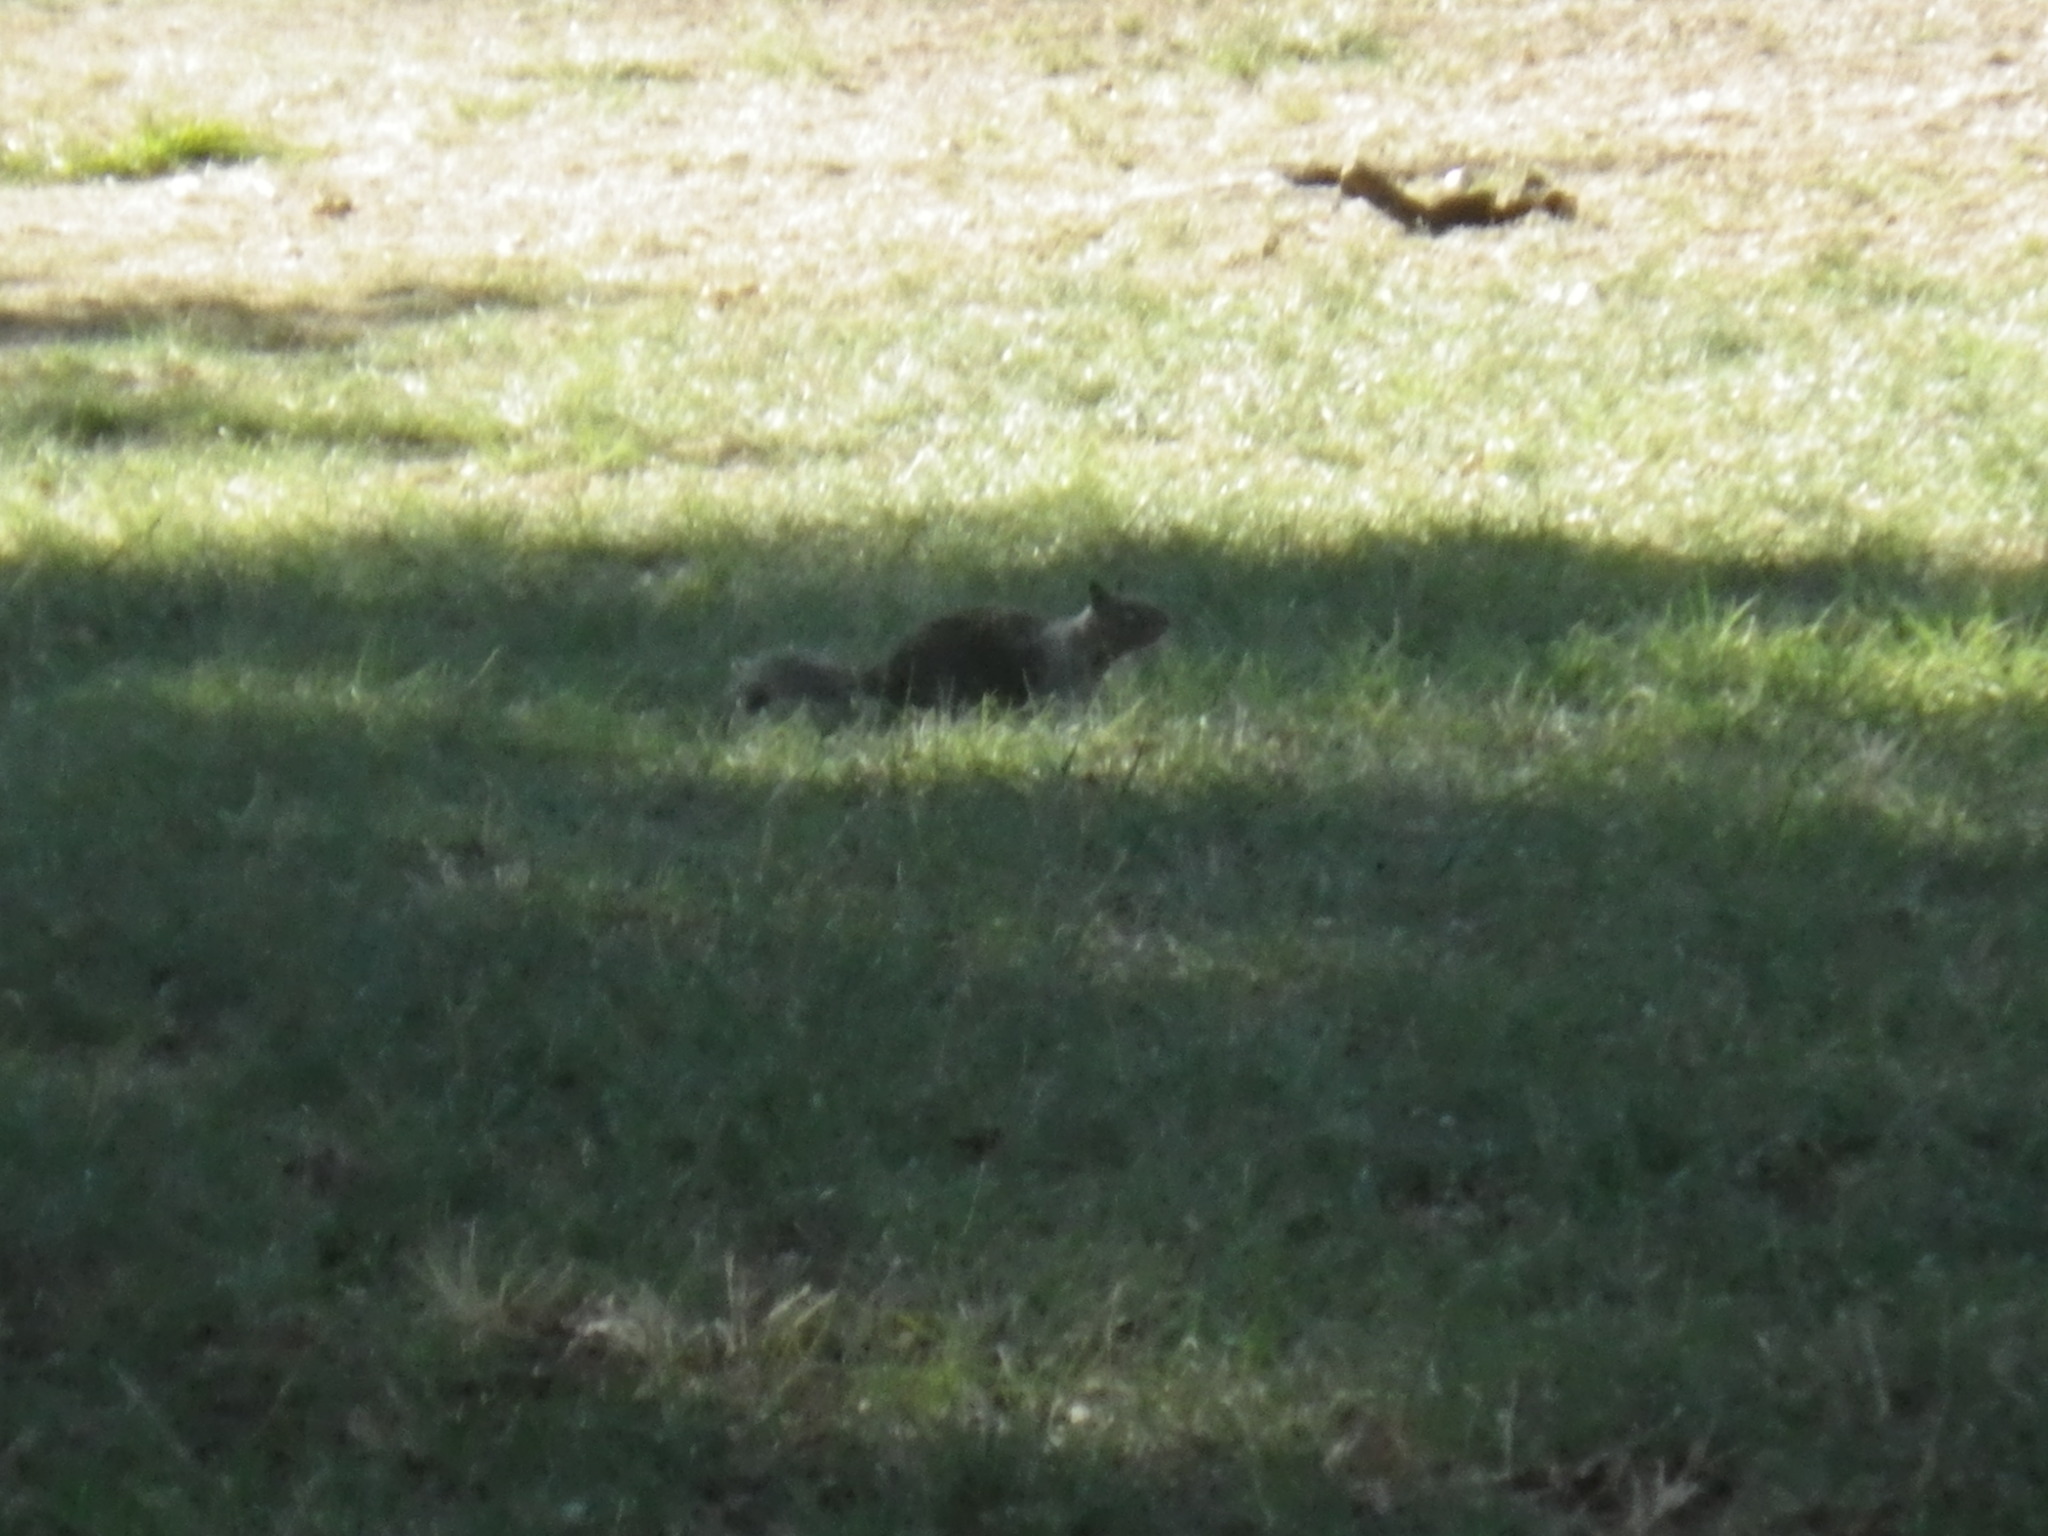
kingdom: Animalia
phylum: Chordata
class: Mammalia
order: Rodentia
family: Sciuridae
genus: Otospermophilus
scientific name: Otospermophilus beecheyi
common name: California ground squirrel
